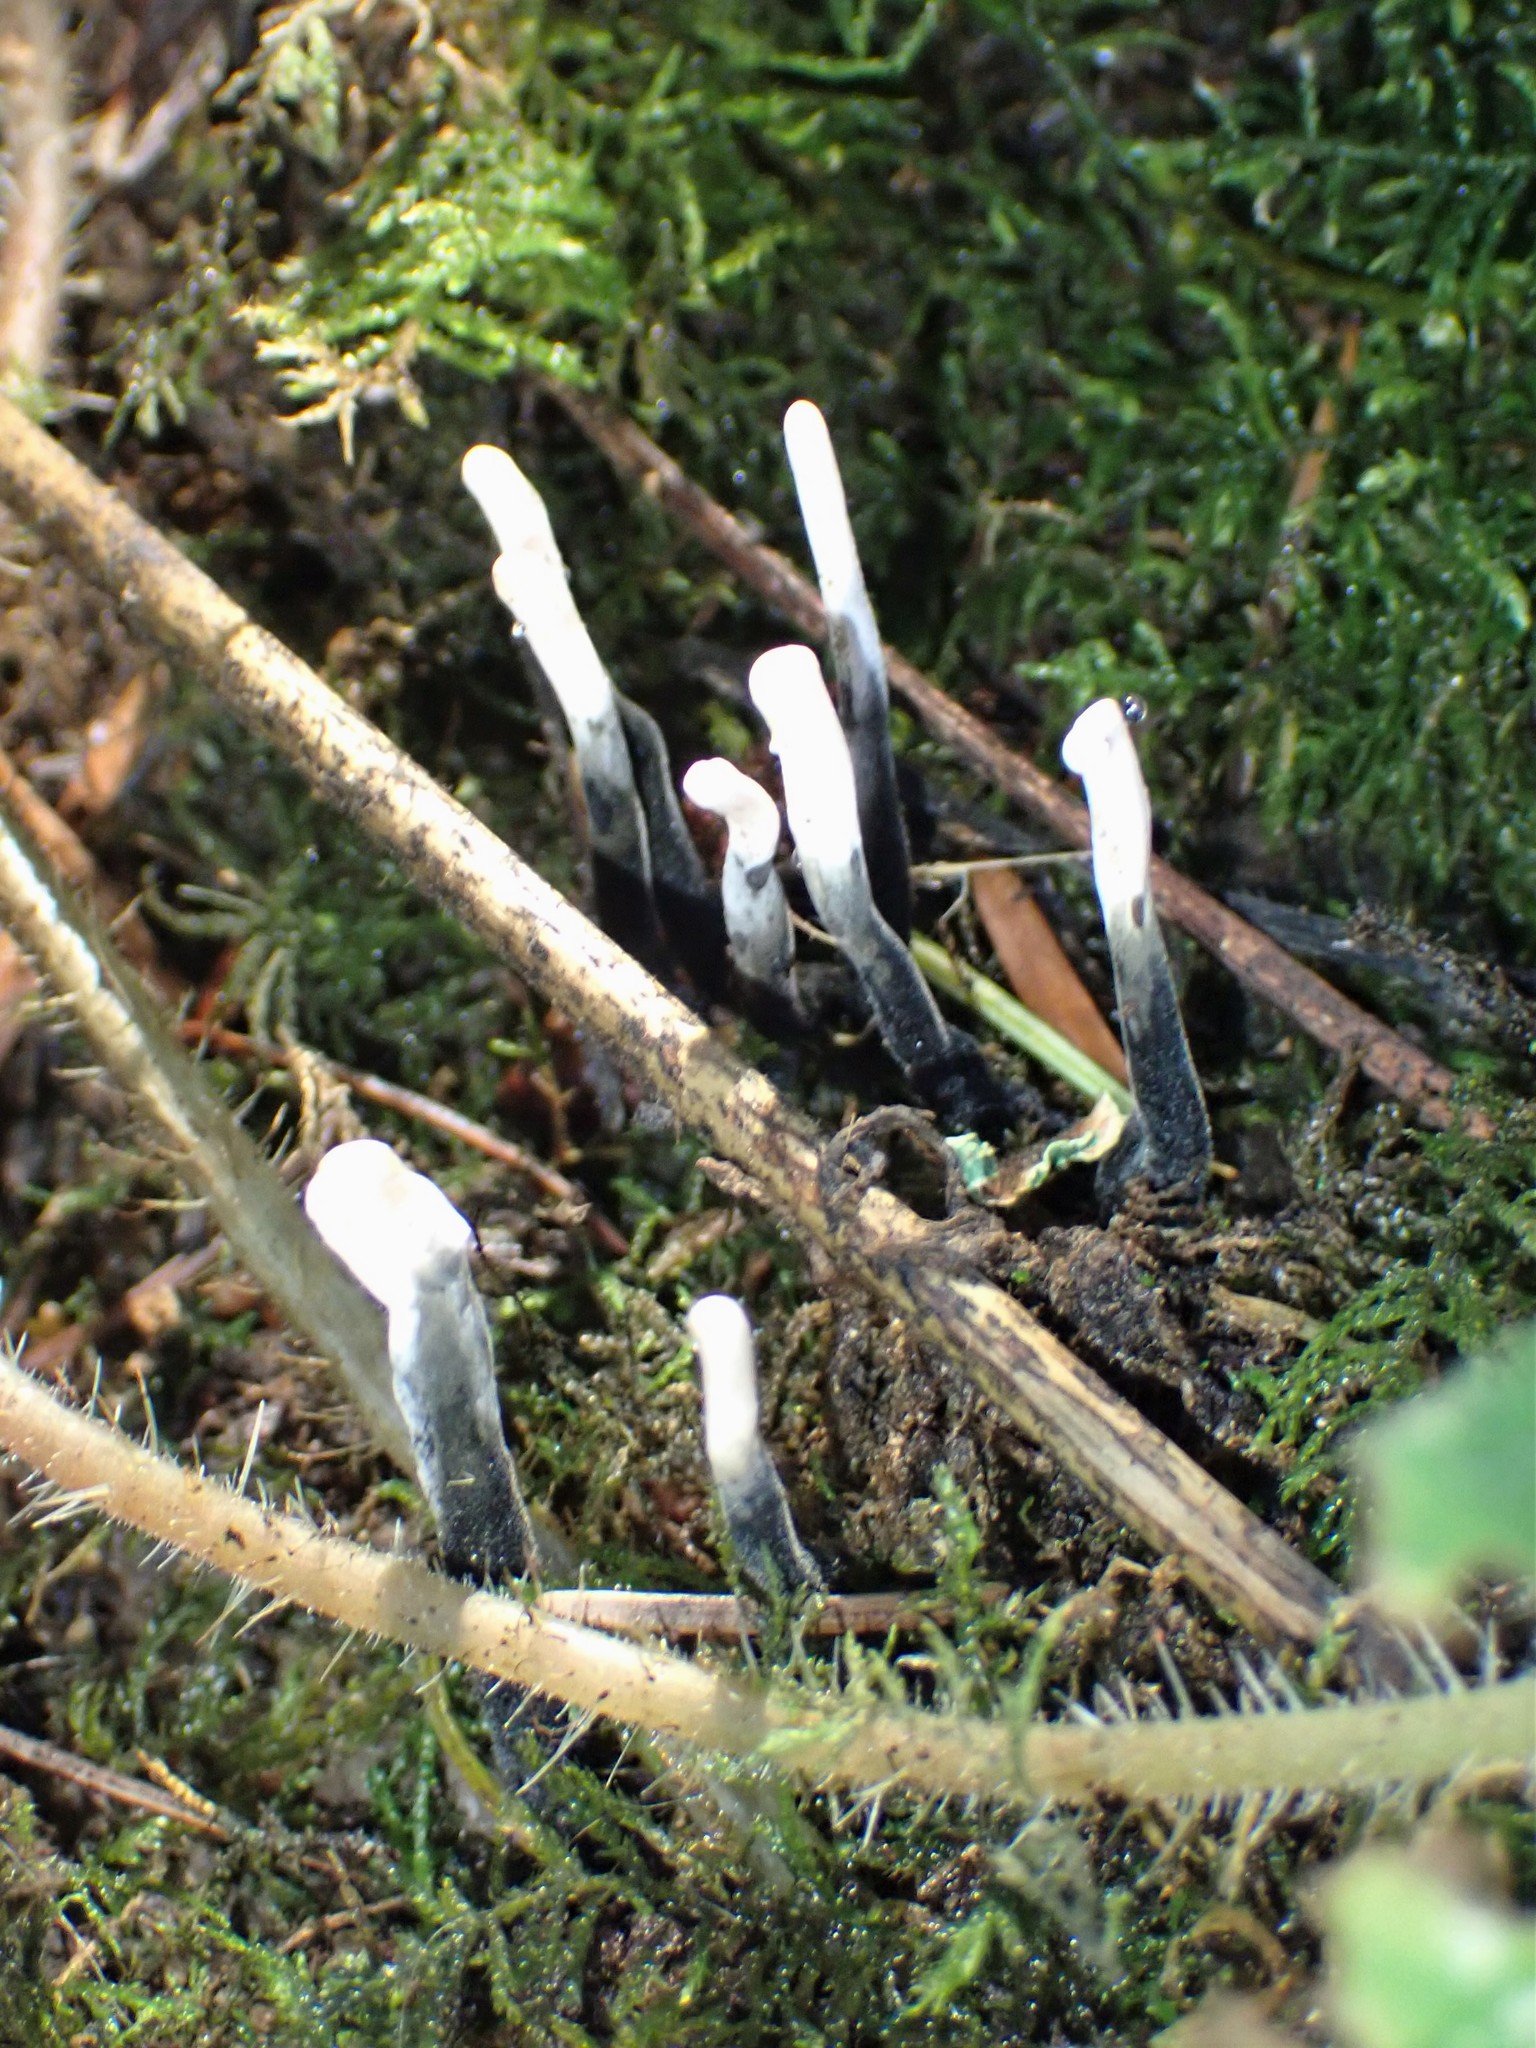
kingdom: Fungi
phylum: Ascomycota
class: Sordariomycetes
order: Xylariales
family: Xylariaceae
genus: Xylaria
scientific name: Xylaria hypoxylon
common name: Candle-snuff fungus
